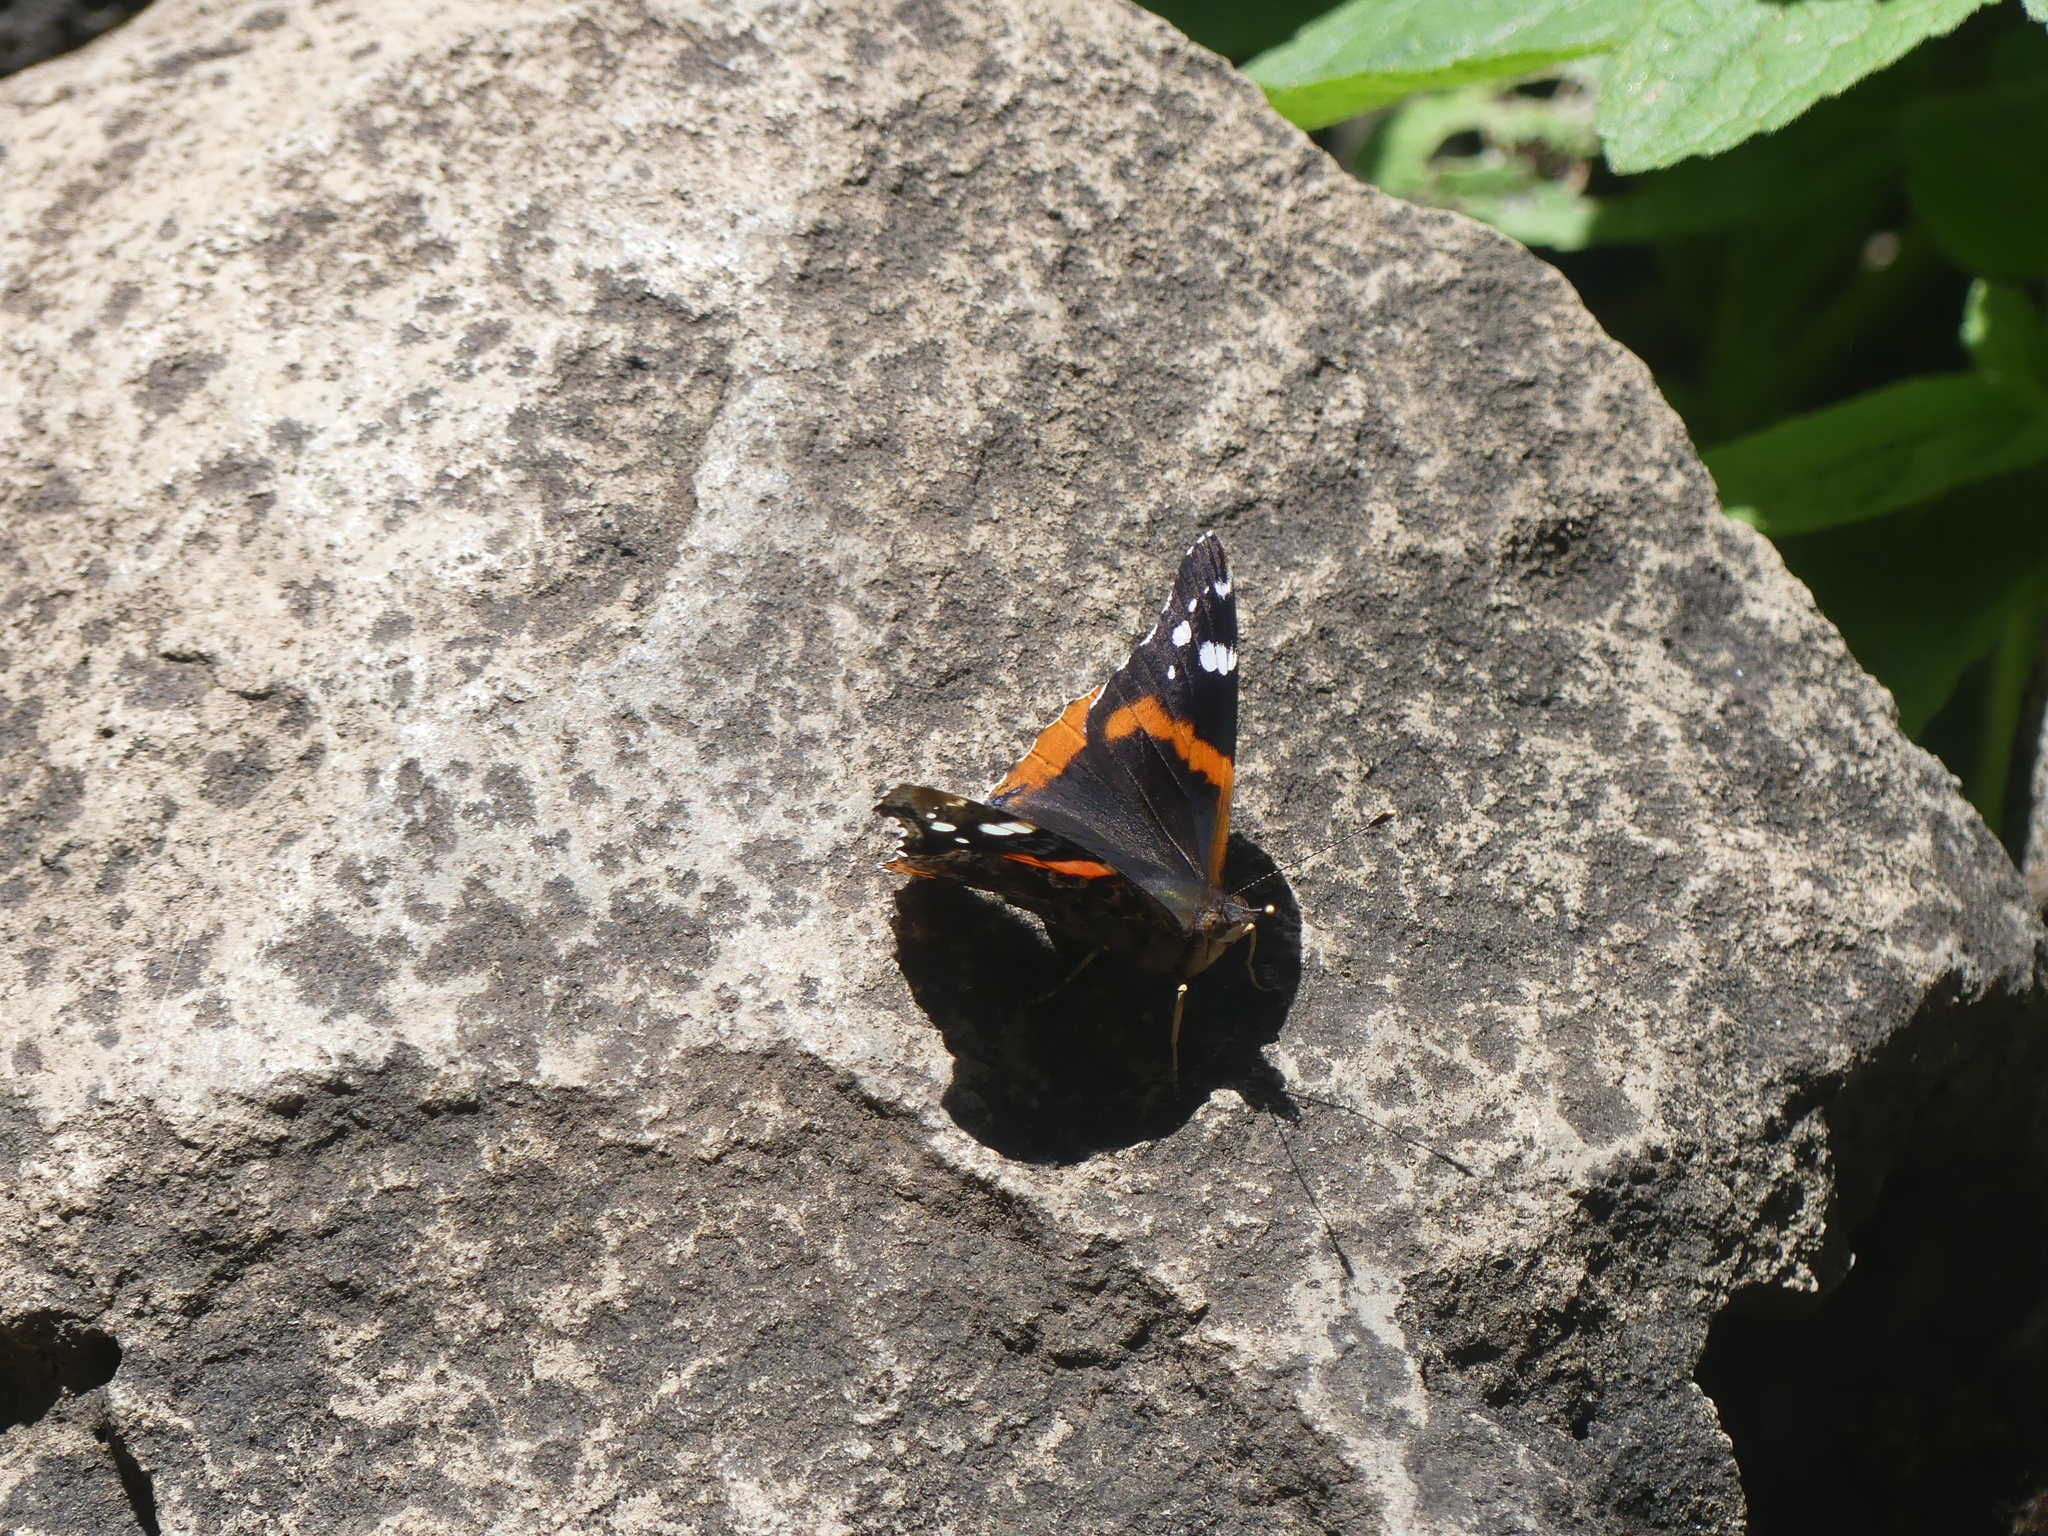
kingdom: Animalia
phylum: Arthropoda
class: Insecta
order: Lepidoptera
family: Nymphalidae
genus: Vanessa
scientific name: Vanessa atalanta
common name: Red admiral
